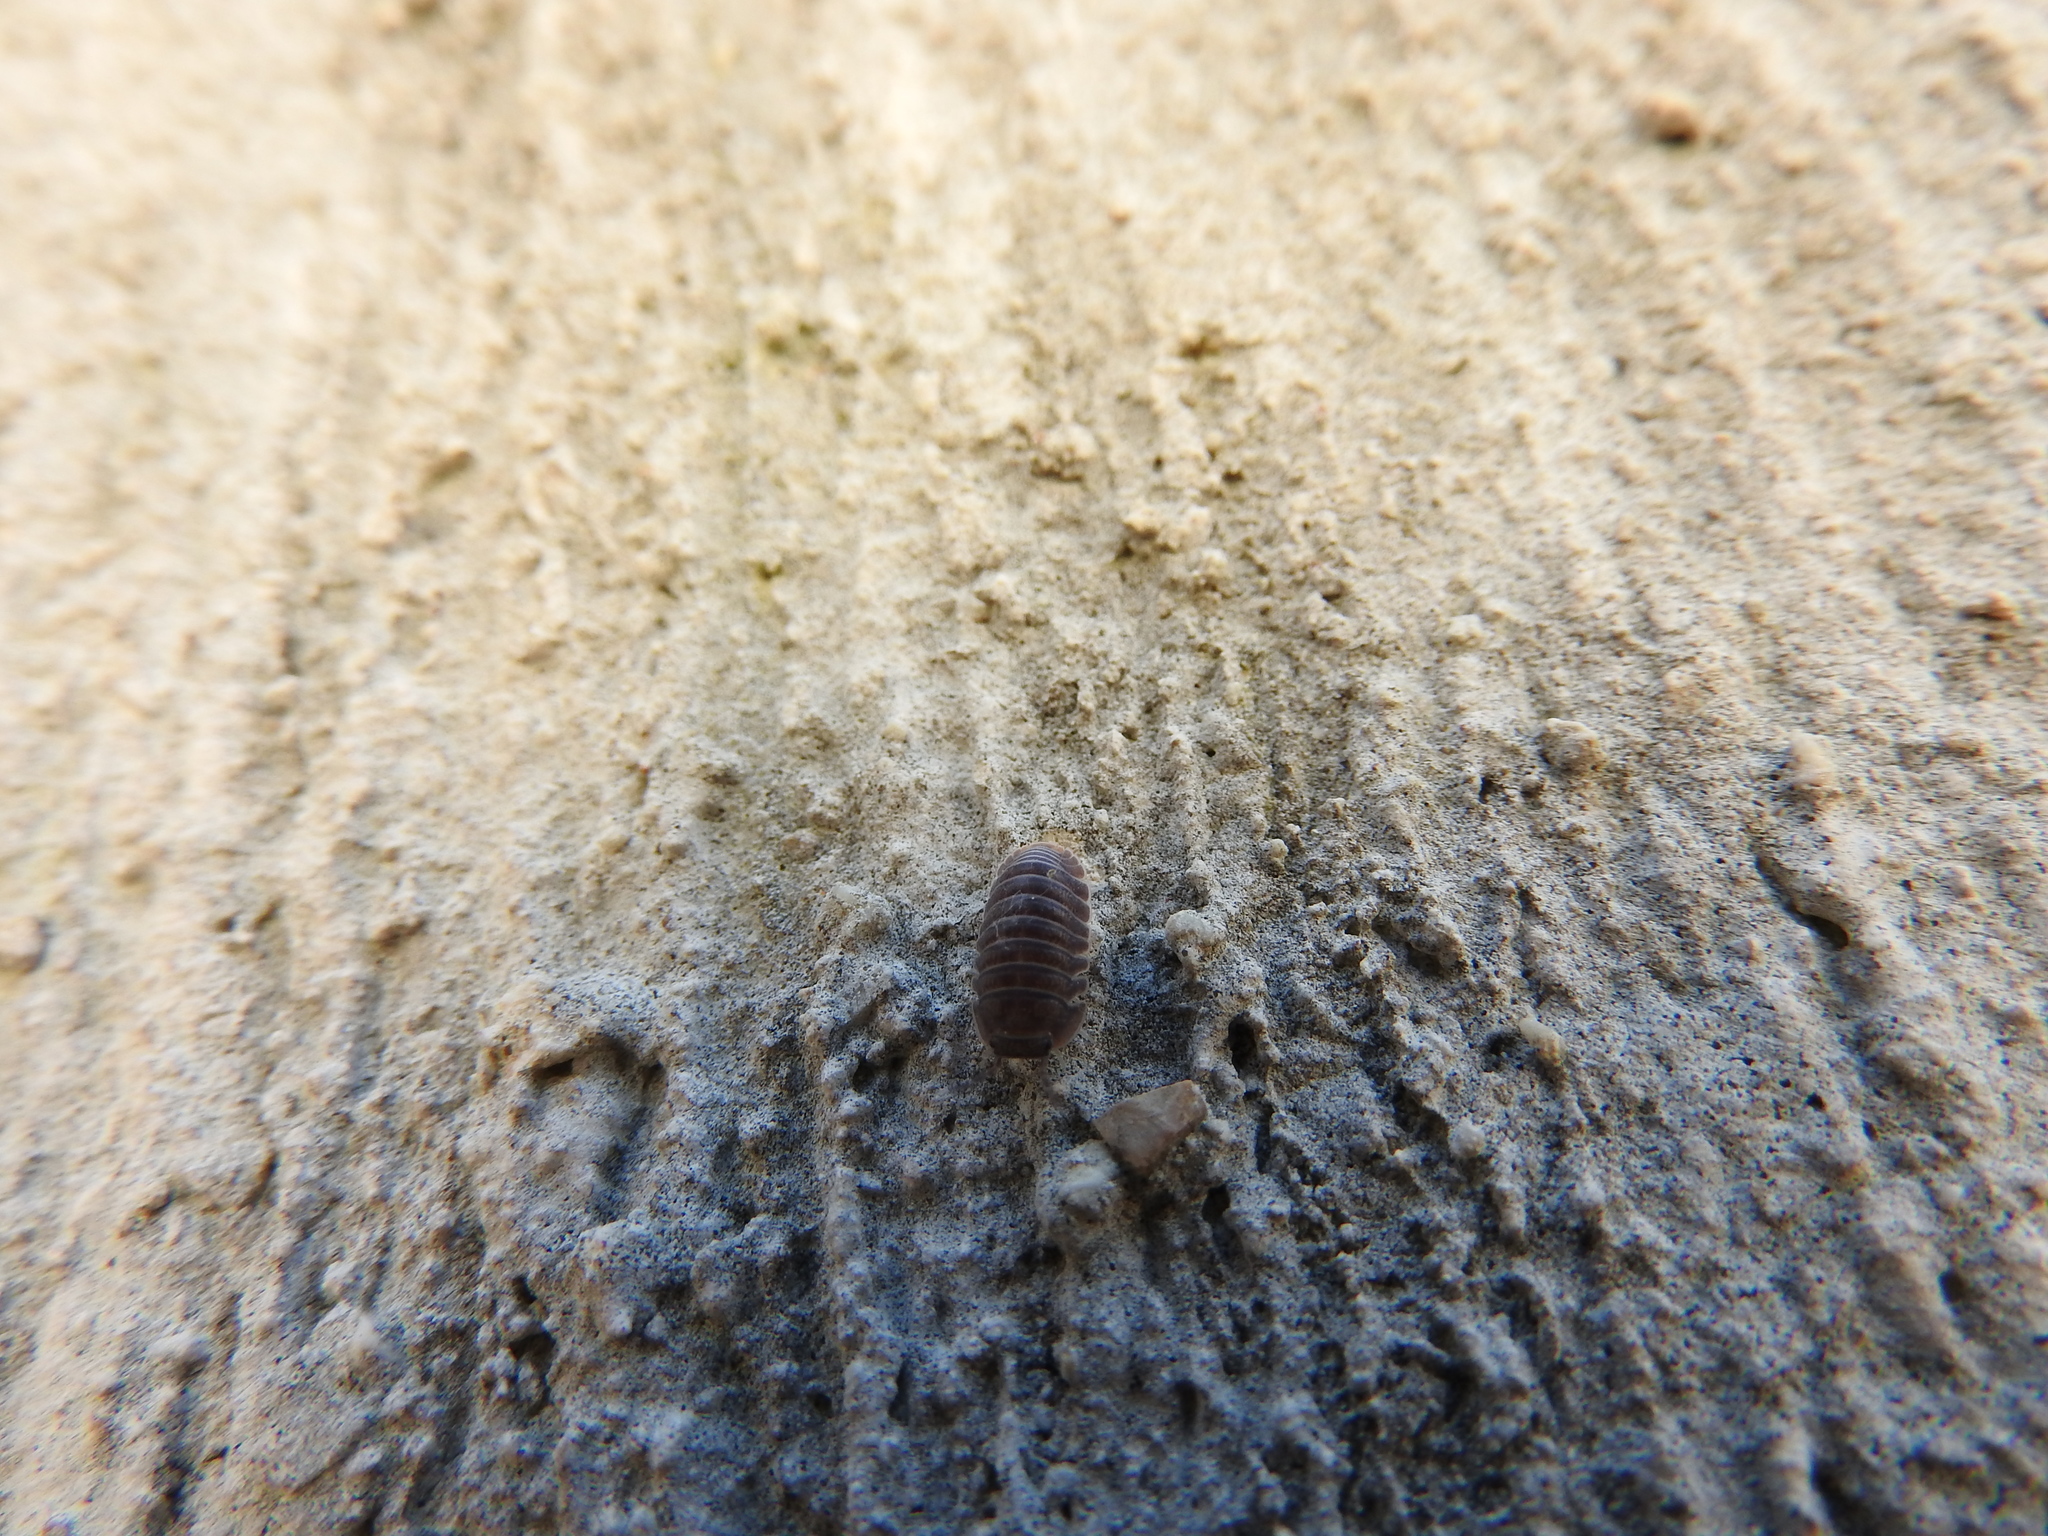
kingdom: Animalia
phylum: Arthropoda
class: Malacostraca
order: Isopoda
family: Armadillidae
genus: Cubaris
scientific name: Cubaris murina
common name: Pillbug
